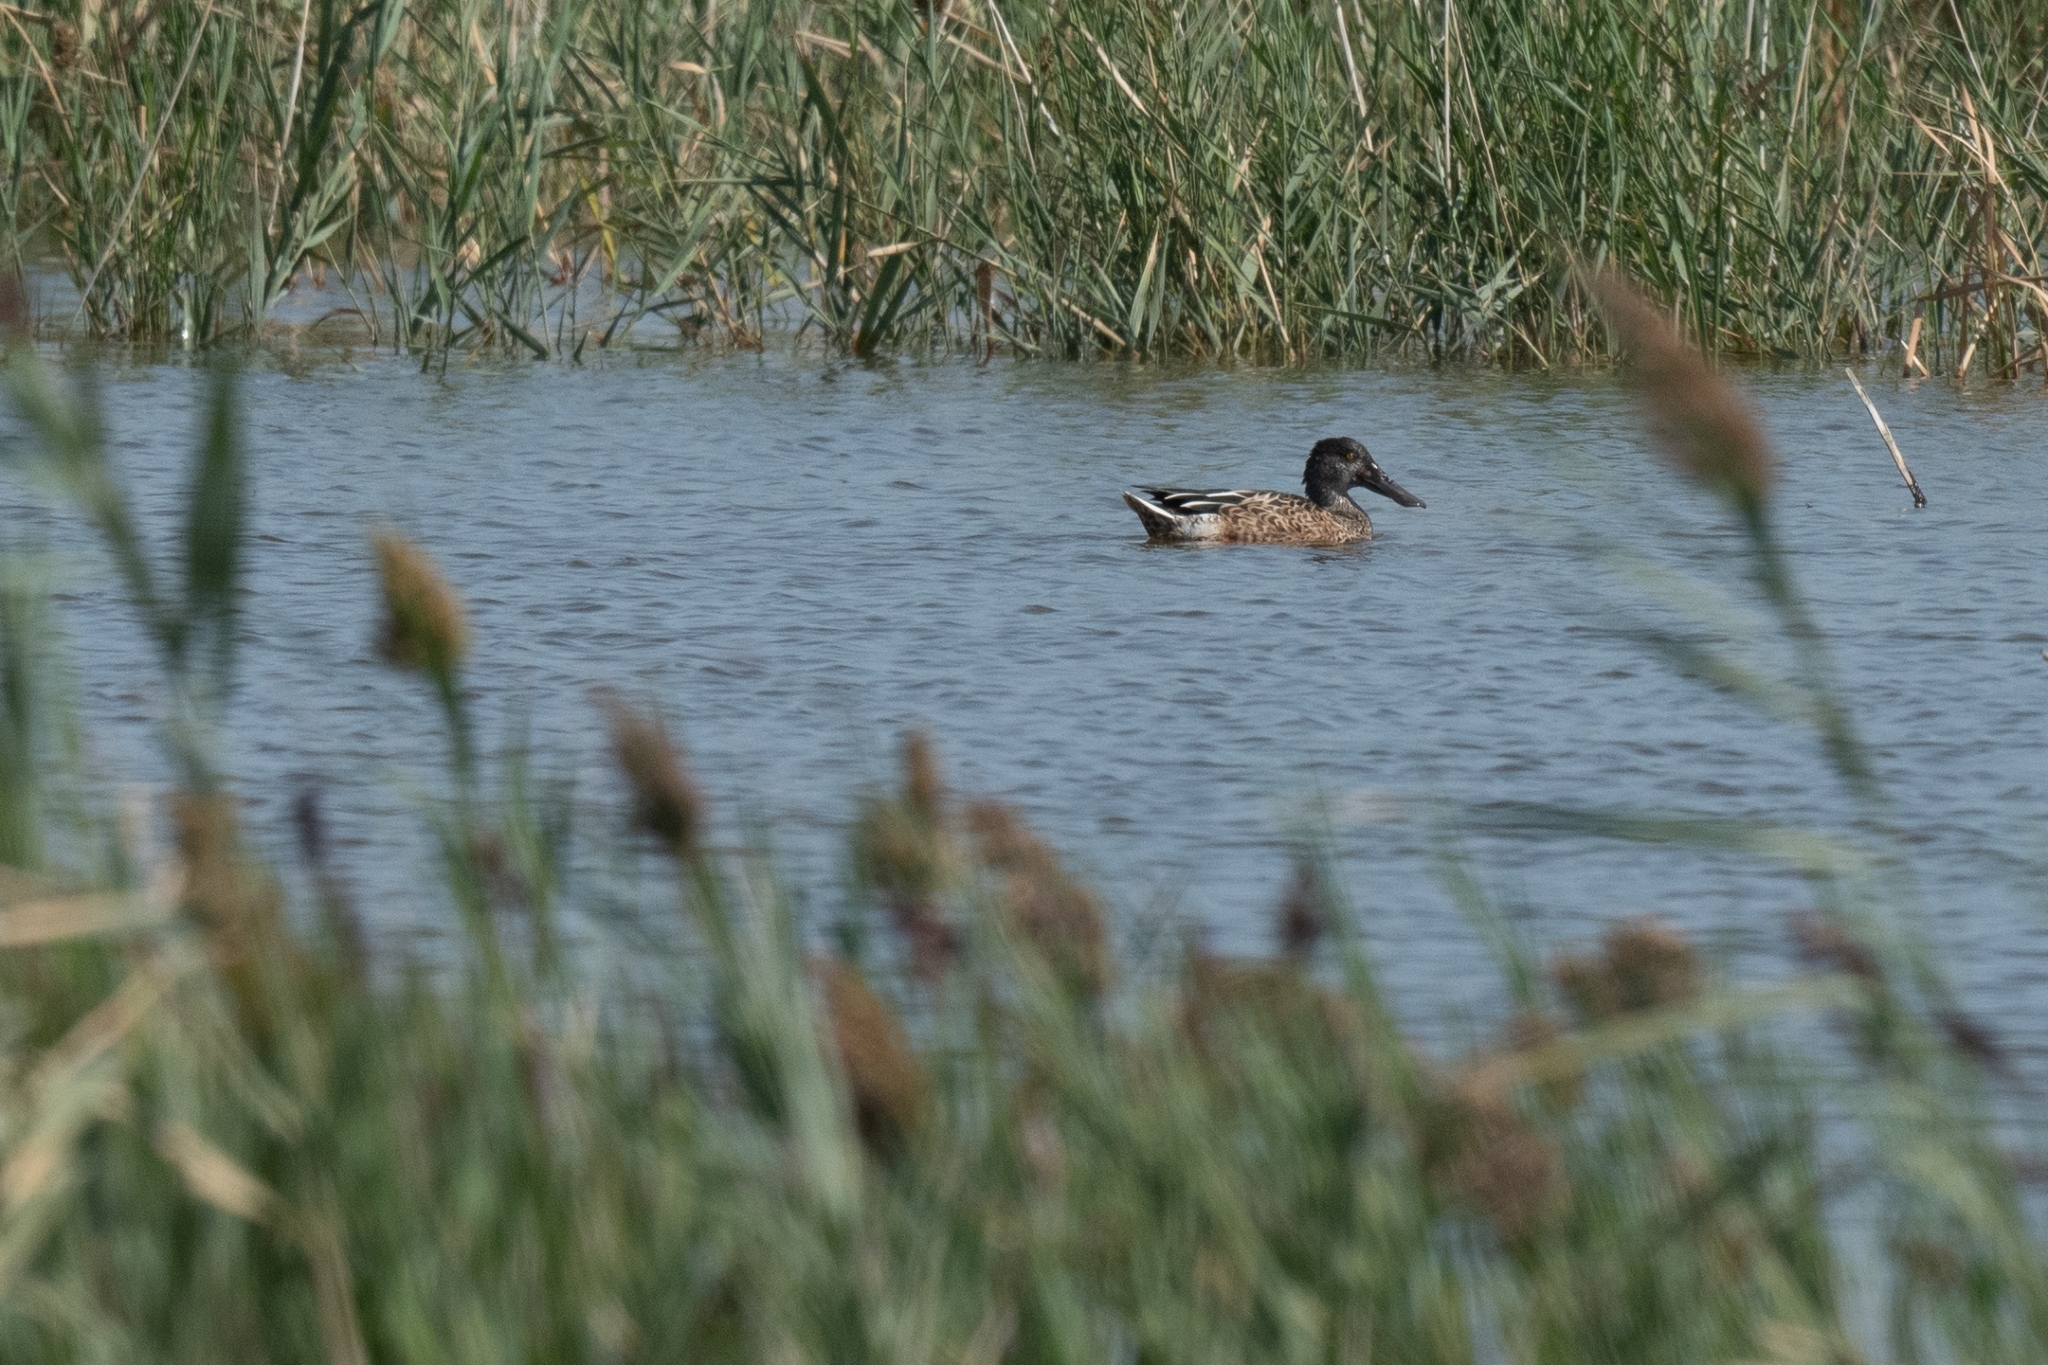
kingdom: Animalia
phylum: Chordata
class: Aves
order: Anseriformes
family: Anatidae
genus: Spatula
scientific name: Spatula clypeata
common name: Northern shoveler
